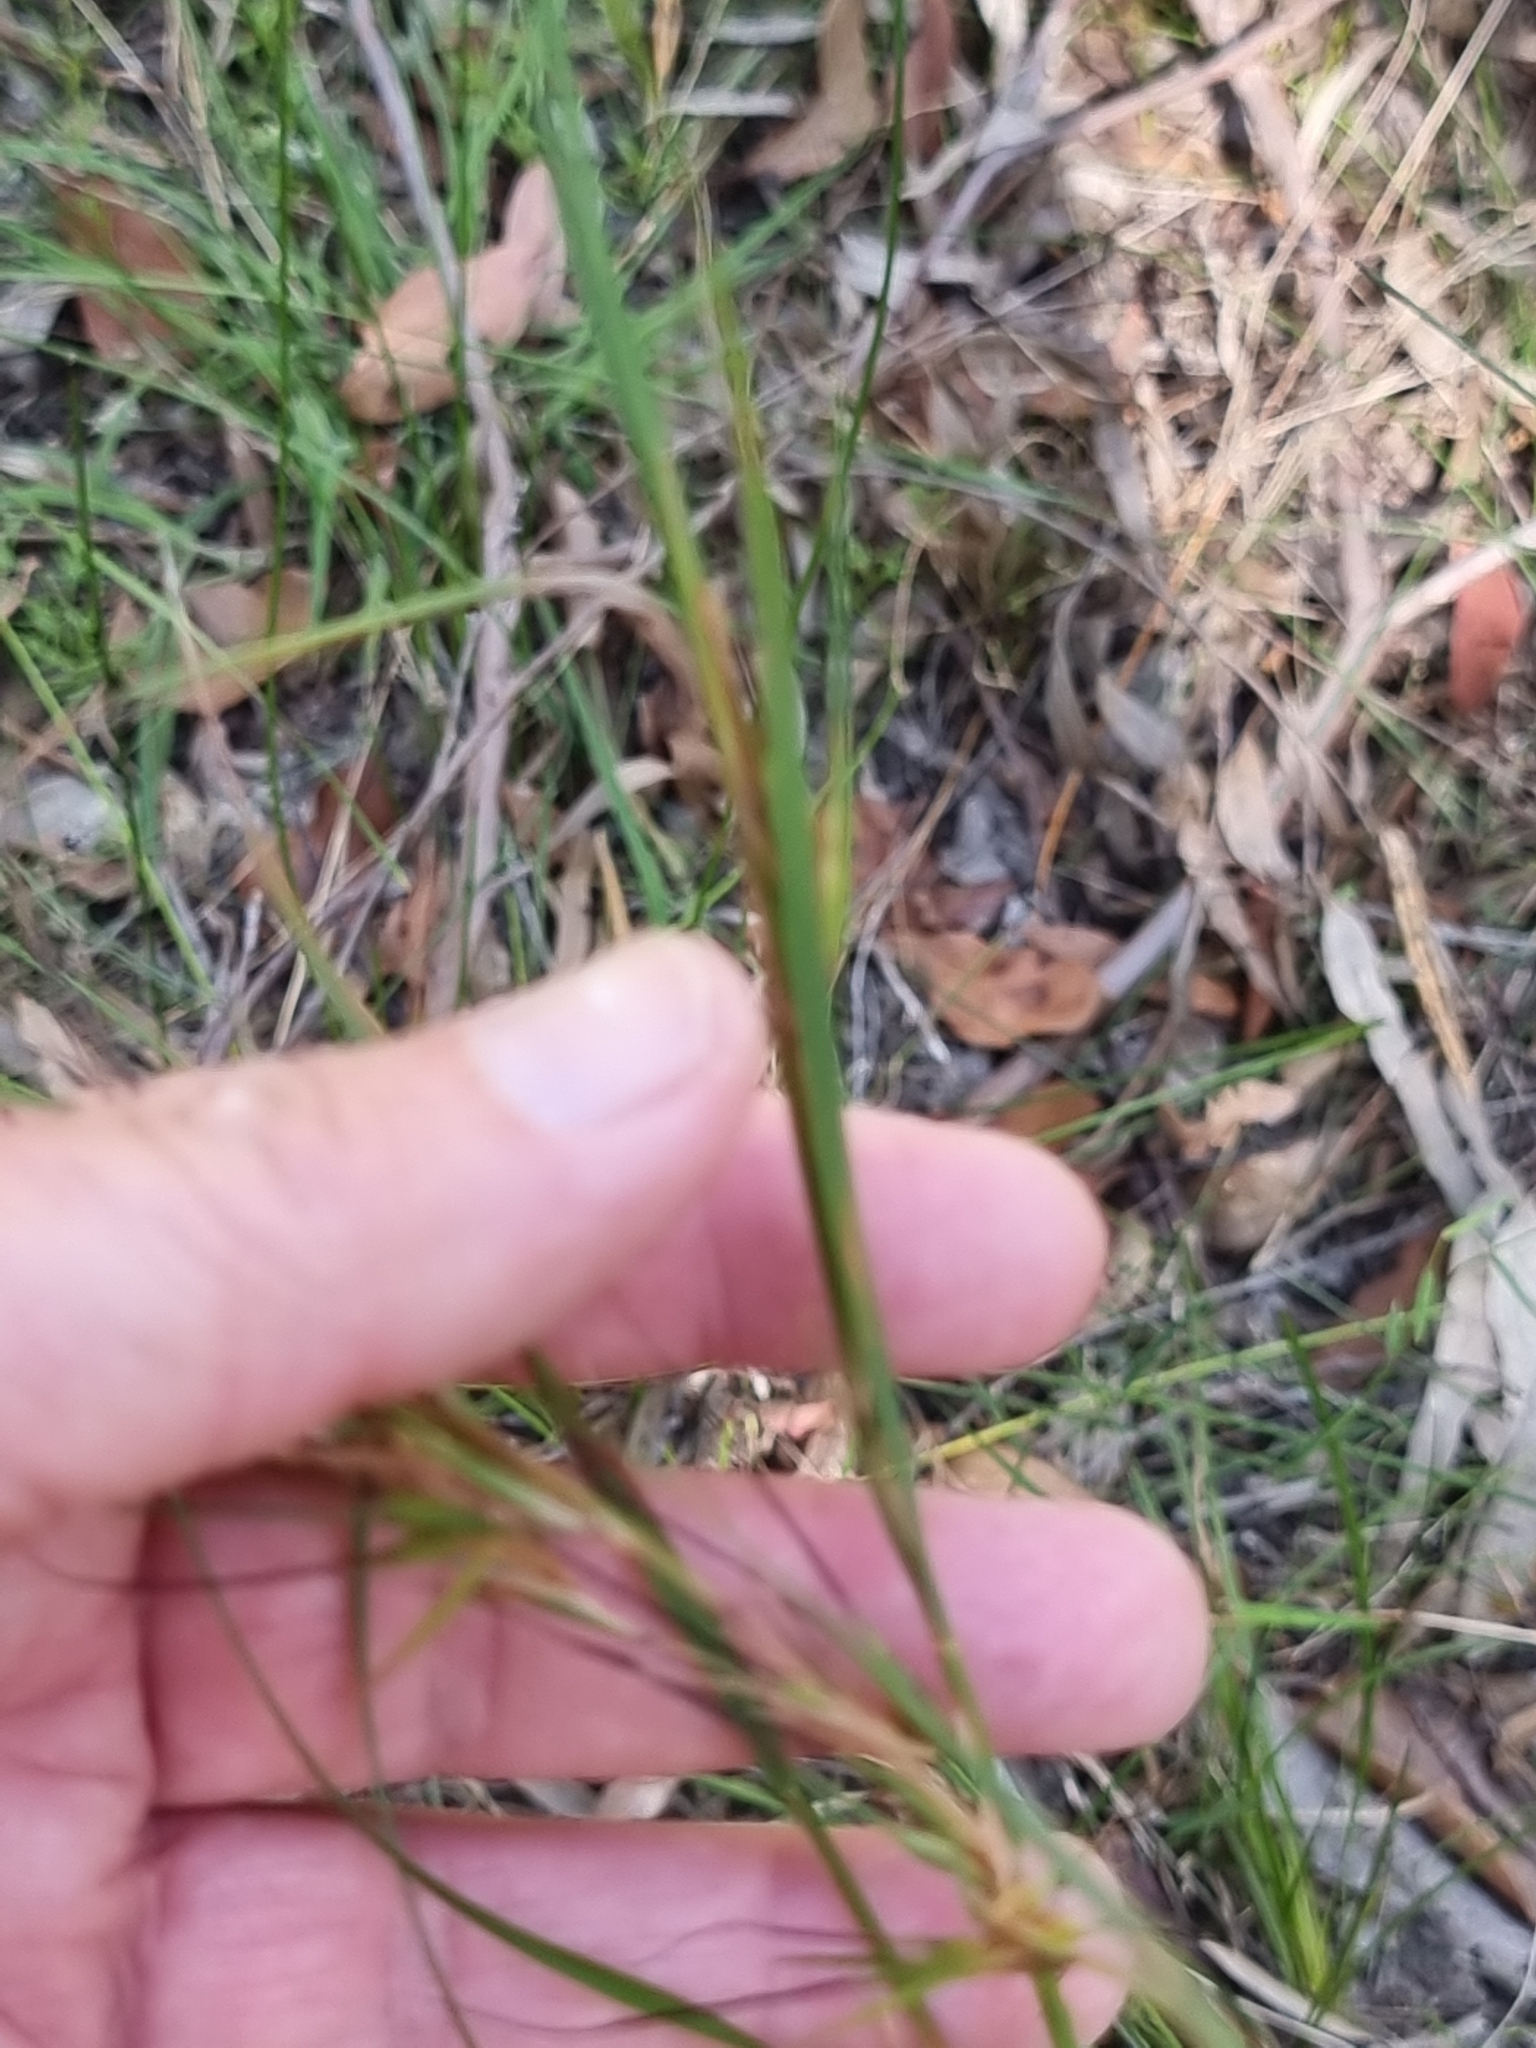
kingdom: Plantae
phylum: Tracheophyta
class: Liliopsida
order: Poales
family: Poaceae
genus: Themeda
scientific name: Themeda triandra
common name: Kangaroo grass
